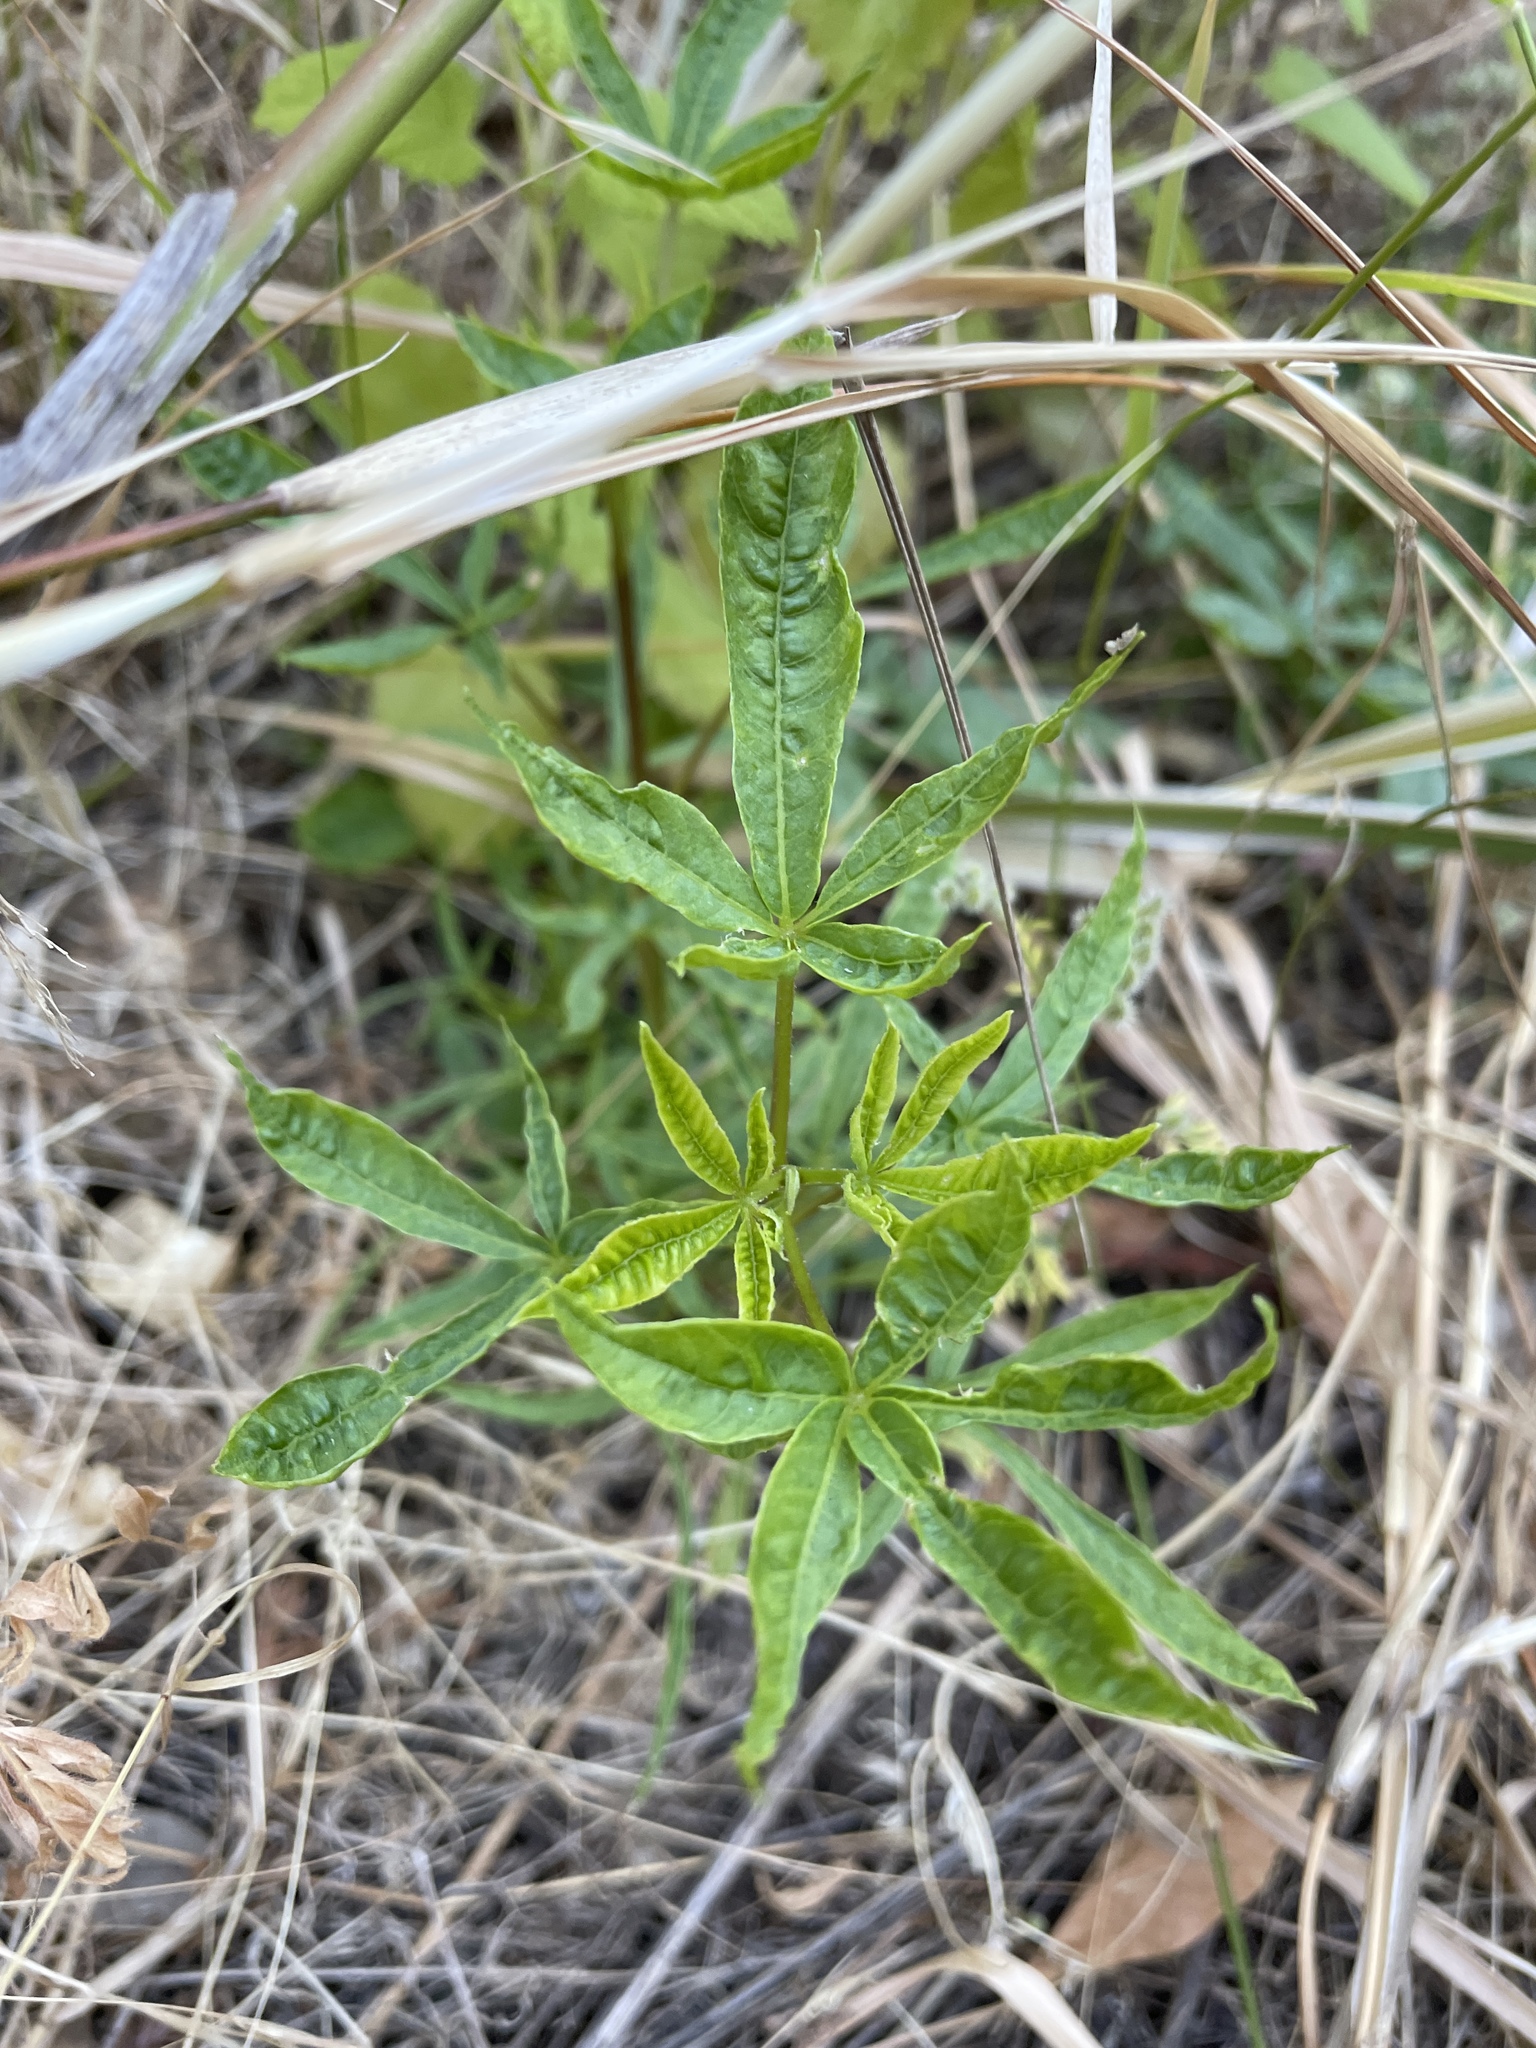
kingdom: Plantae
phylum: Tracheophyta
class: Magnoliopsida
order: Sapindales
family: Sapindaceae
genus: Aesculus
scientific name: Aesculus californica
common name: California buckeye
